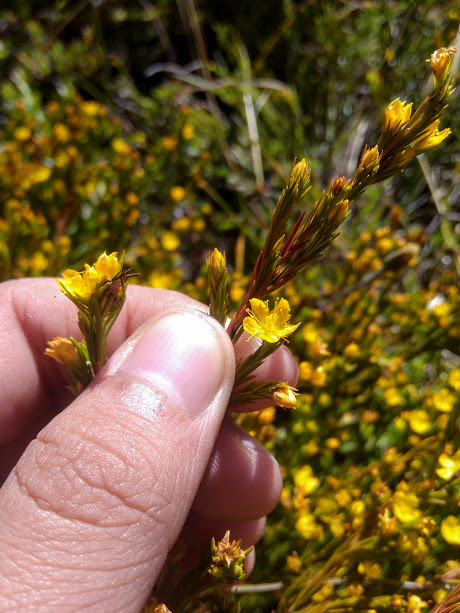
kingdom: Plantae
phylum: Tracheophyta
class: Magnoliopsida
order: Malpighiales
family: Hypericaceae
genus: Hypericum
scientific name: Hypericum juniperinum
